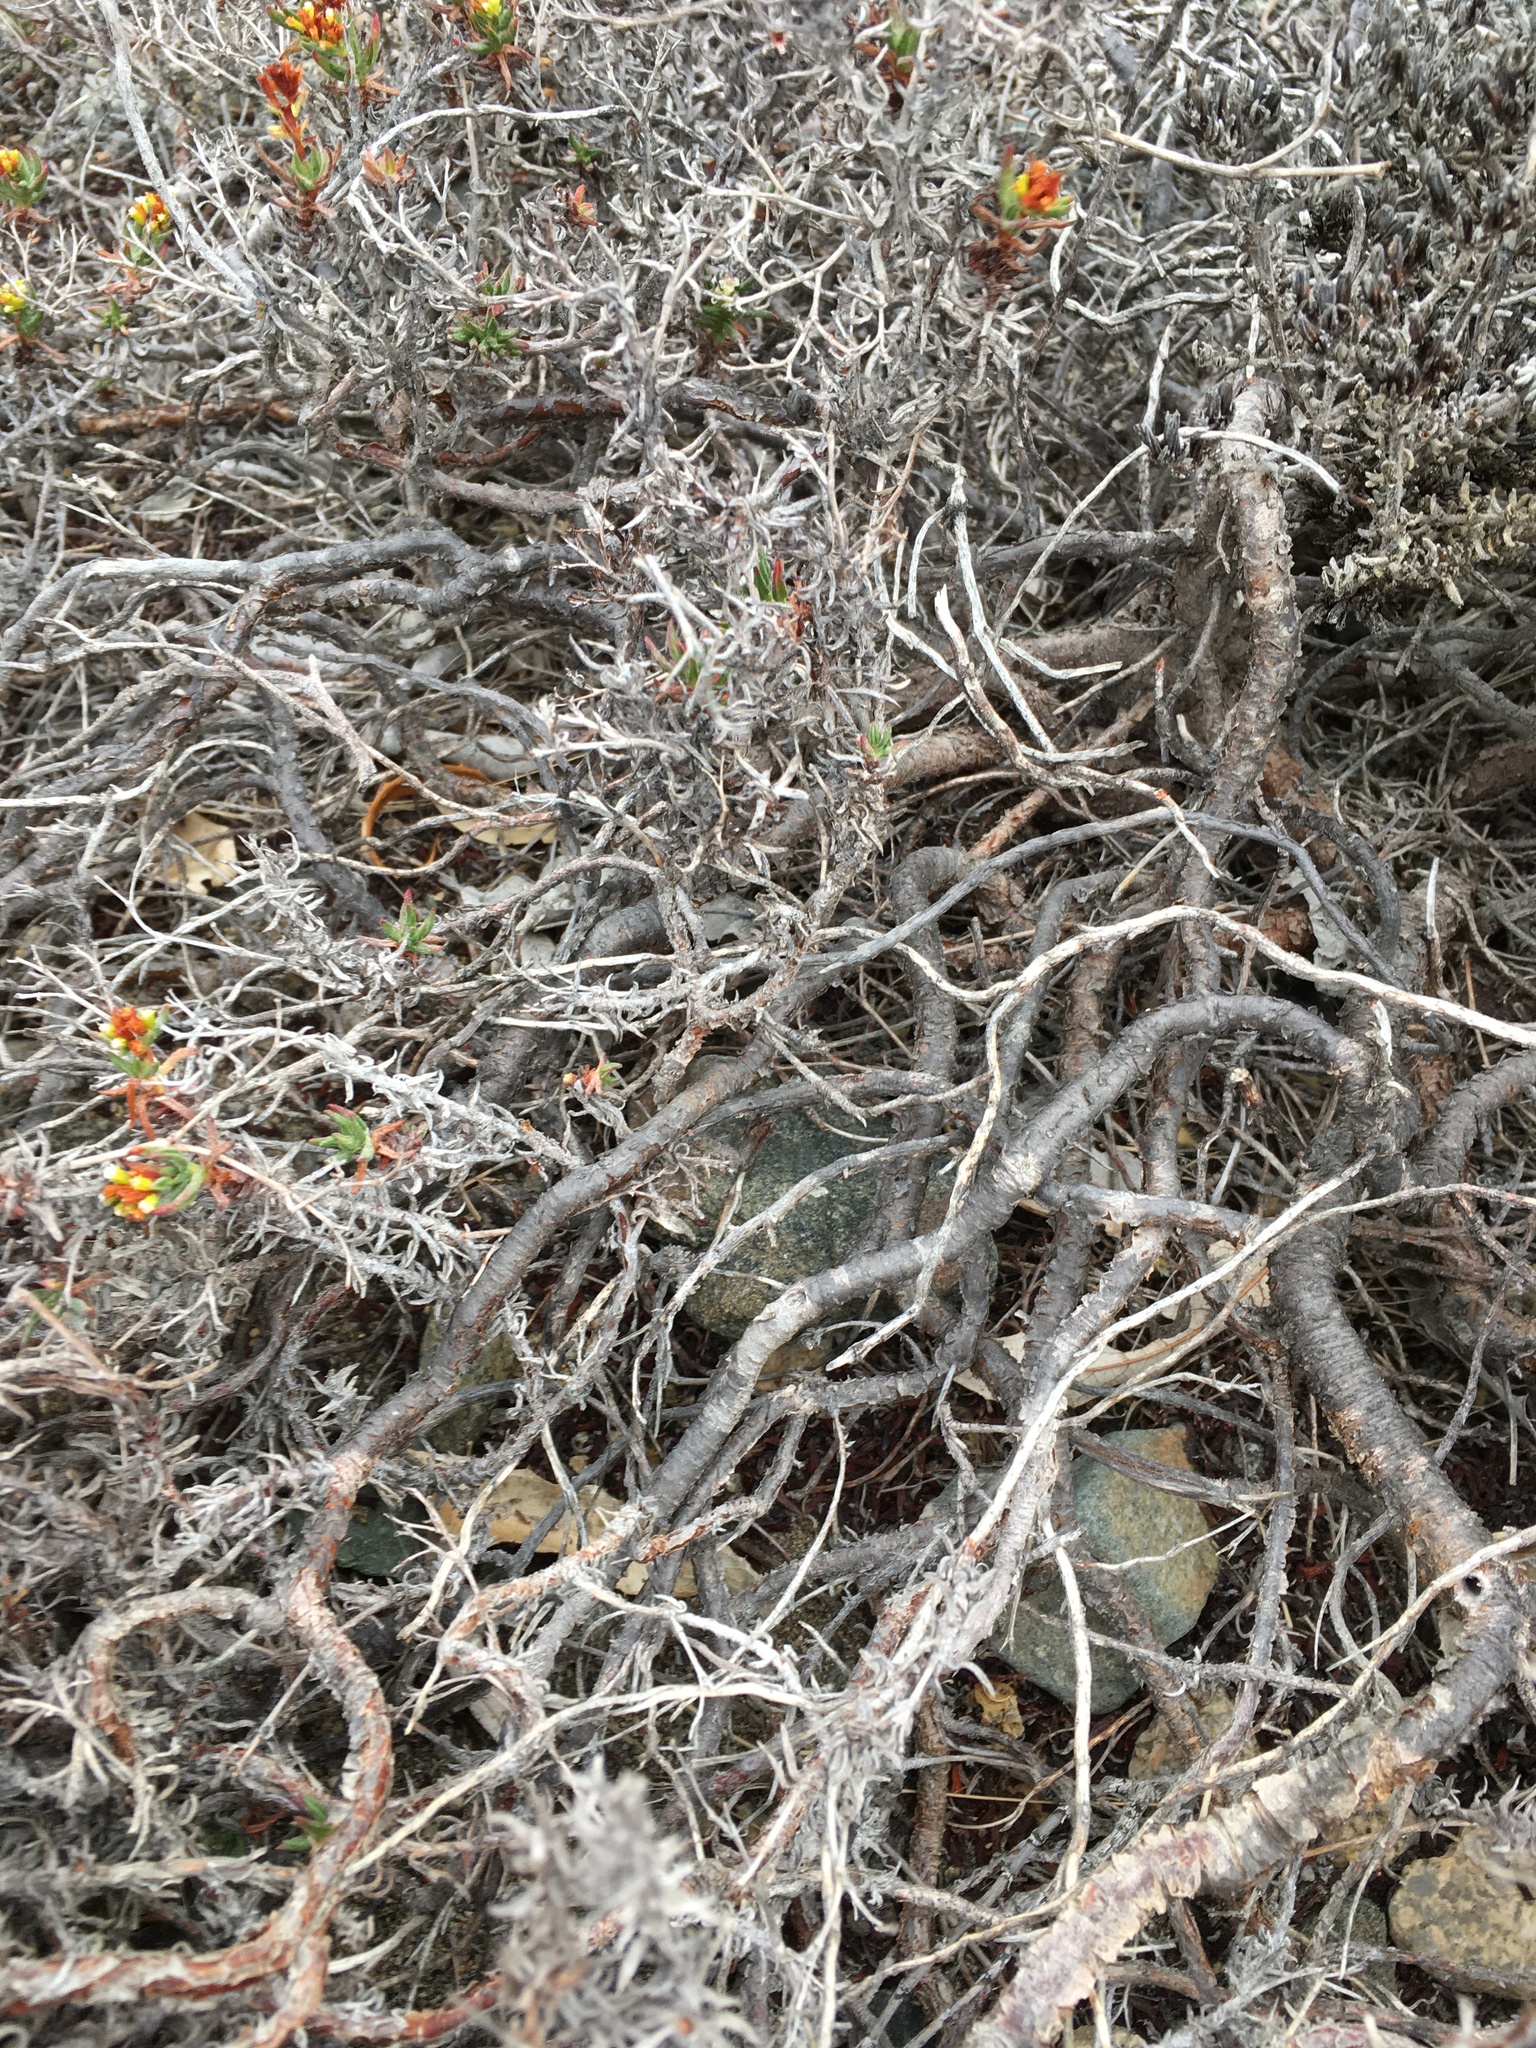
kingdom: Plantae
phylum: Tracheophyta
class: Magnoliopsida
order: Caryophyllales
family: Polygonaceae
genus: Chorizanthe
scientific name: Chorizanthe flavescens
